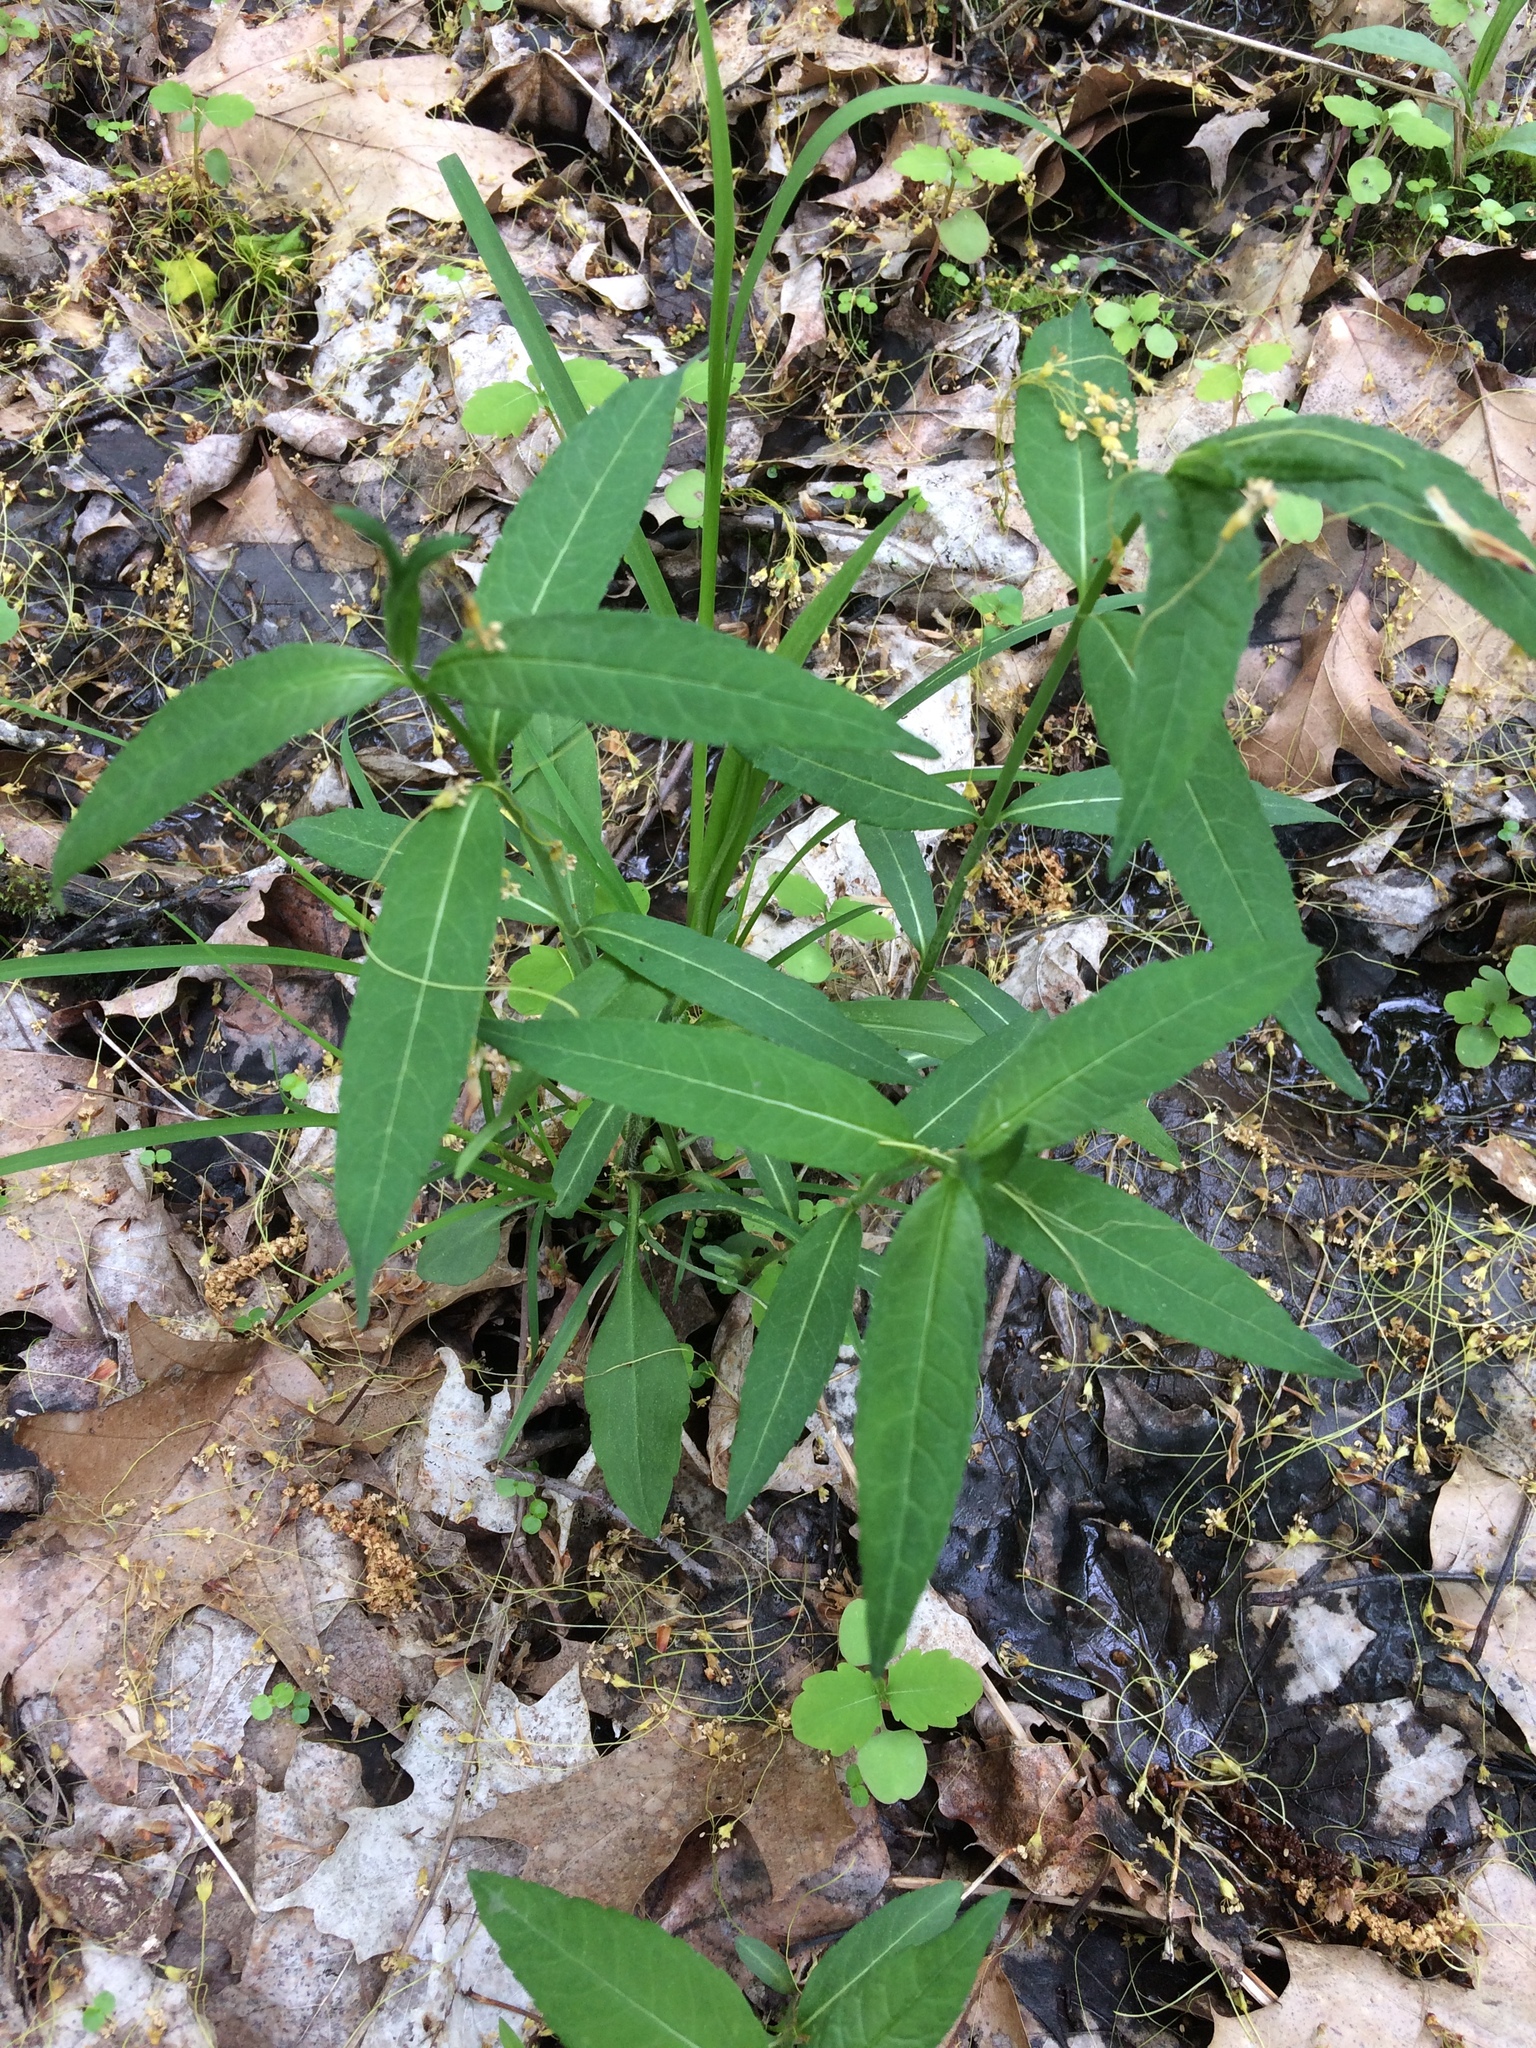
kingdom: Plantae
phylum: Tracheophyta
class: Magnoliopsida
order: Lamiales
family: Plantaginaceae
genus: Chelone
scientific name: Chelone glabra
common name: Snakehead
